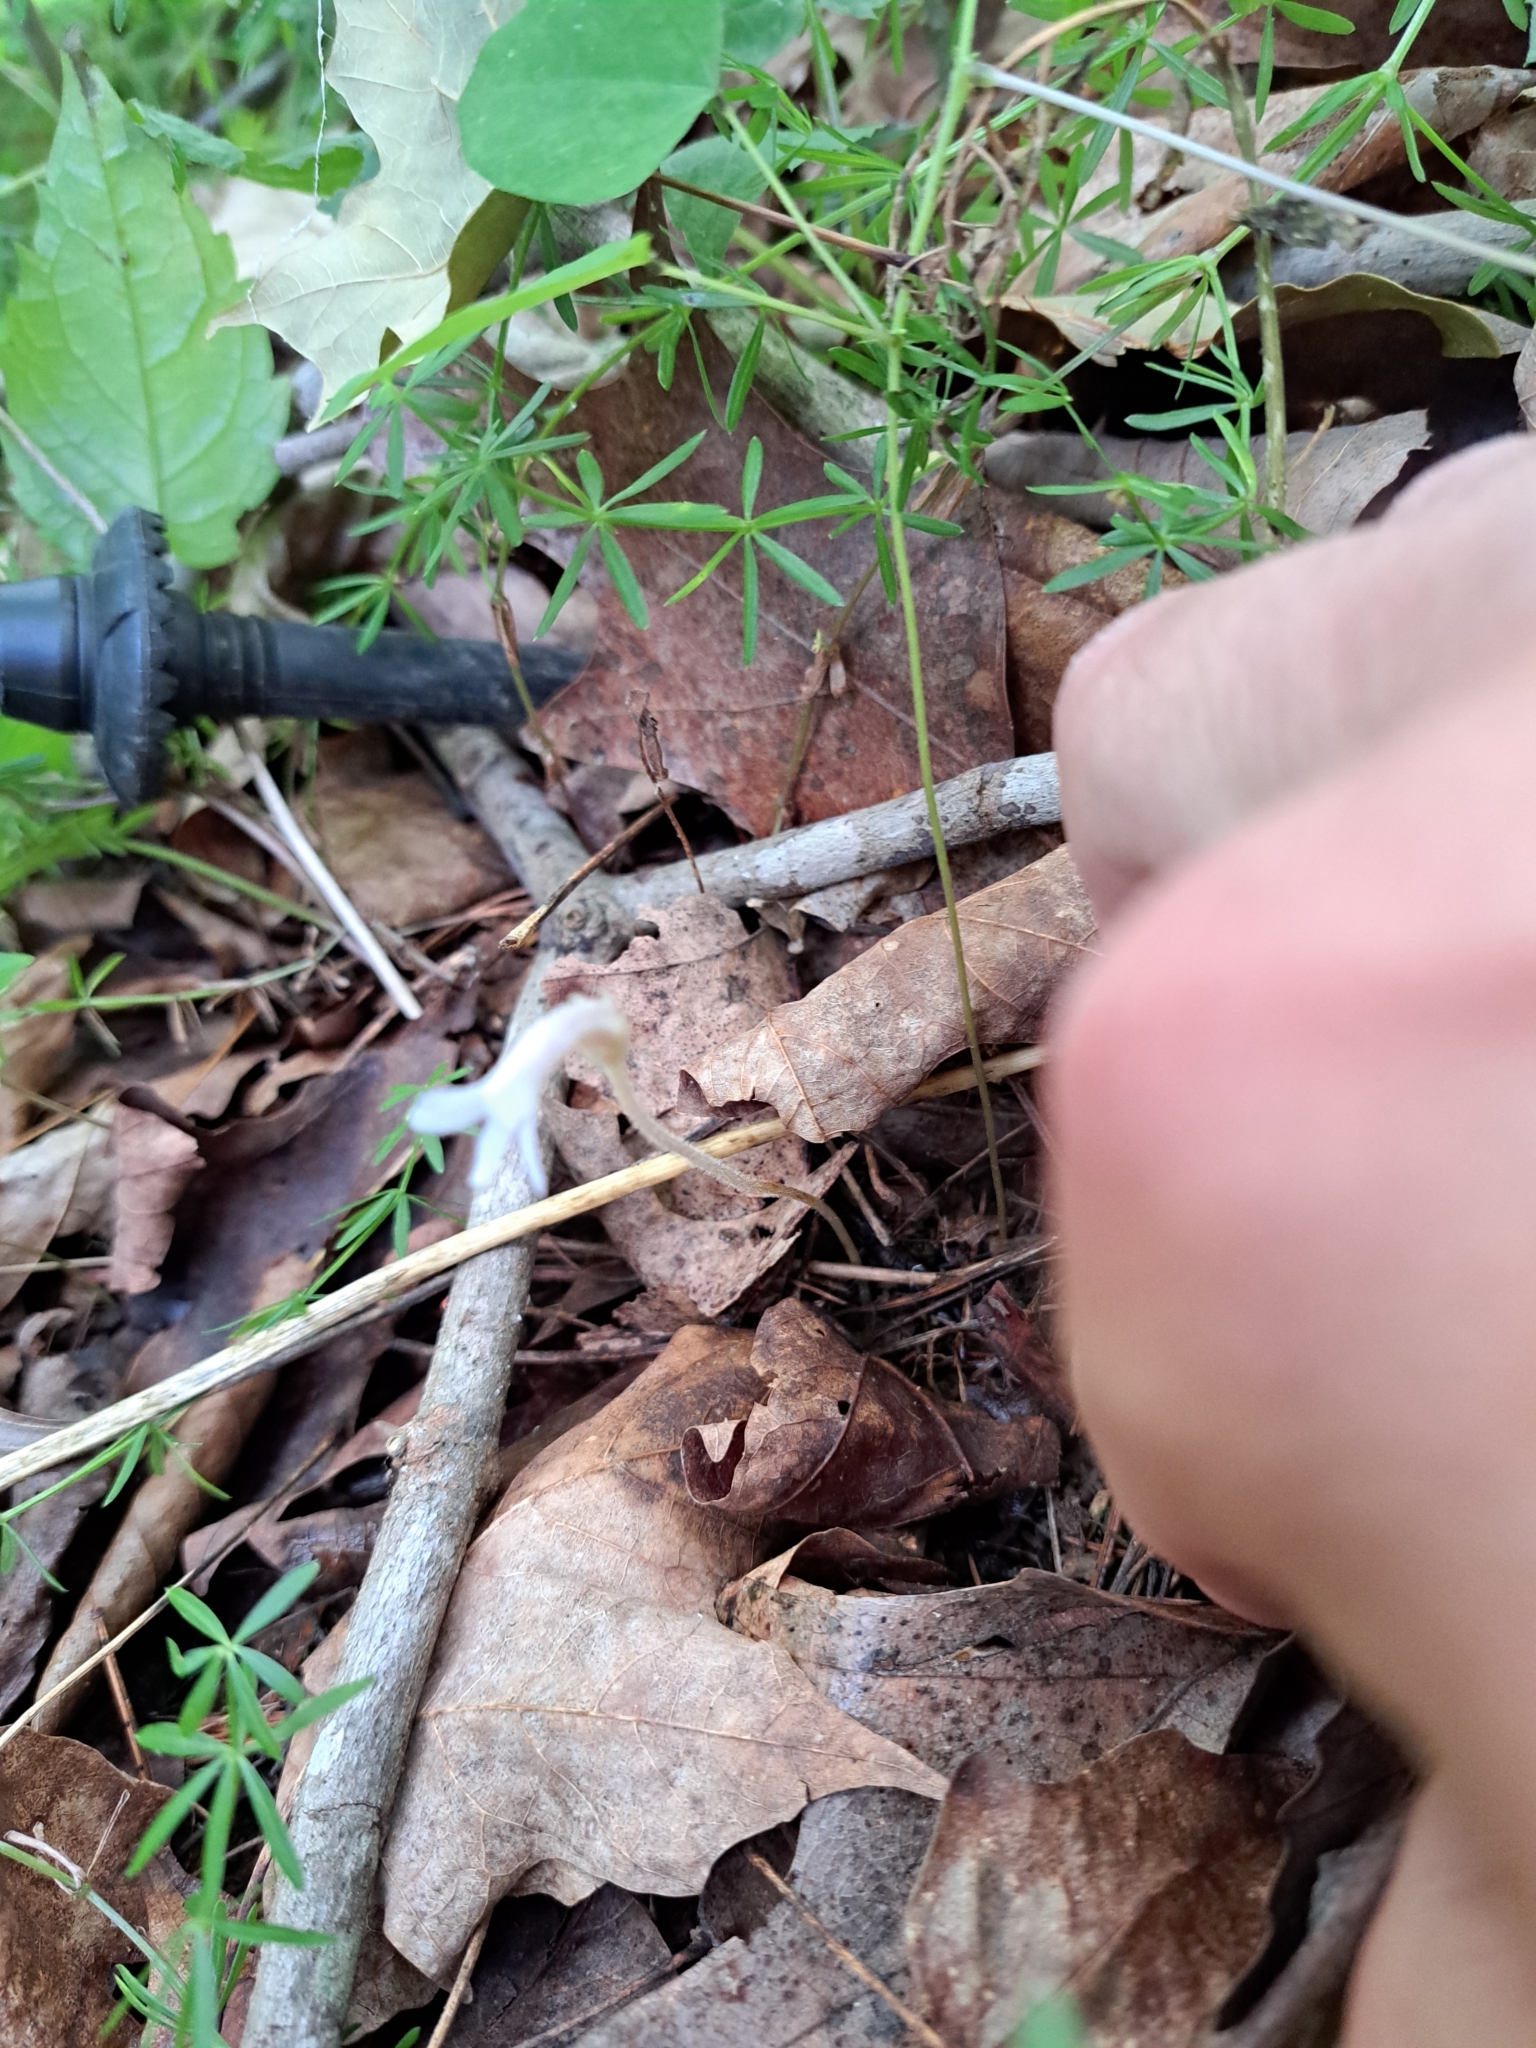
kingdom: Plantae
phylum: Tracheophyta
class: Magnoliopsida
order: Lamiales
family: Orobanchaceae
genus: Aphyllon
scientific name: Aphyllon uniflorum
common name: One-flowered broomrape
